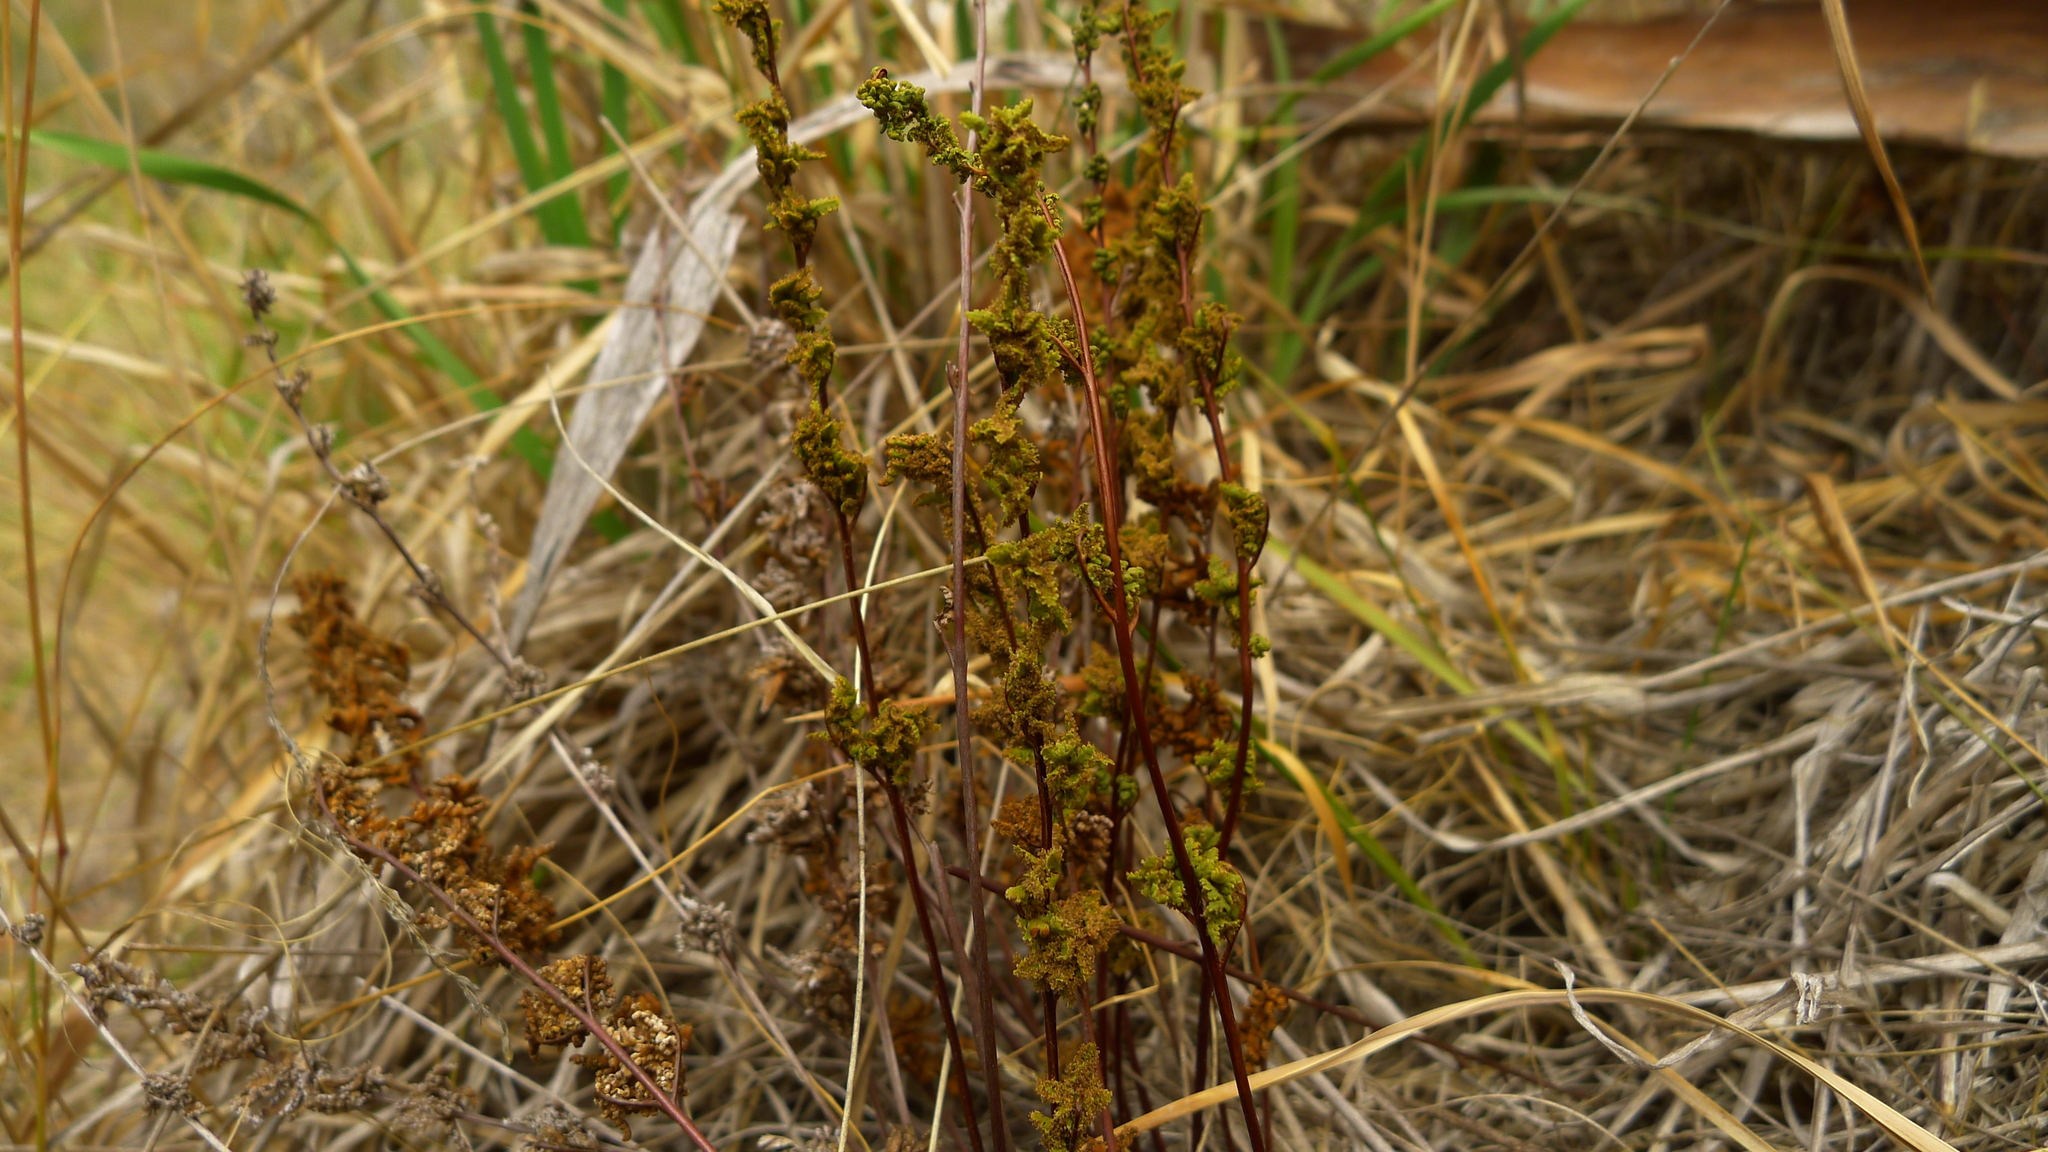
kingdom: Plantae
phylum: Tracheophyta
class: Polypodiopsida
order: Polypodiales
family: Pteridaceae
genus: Cheilanthes
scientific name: Cheilanthes sieberi
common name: Mulga fern
